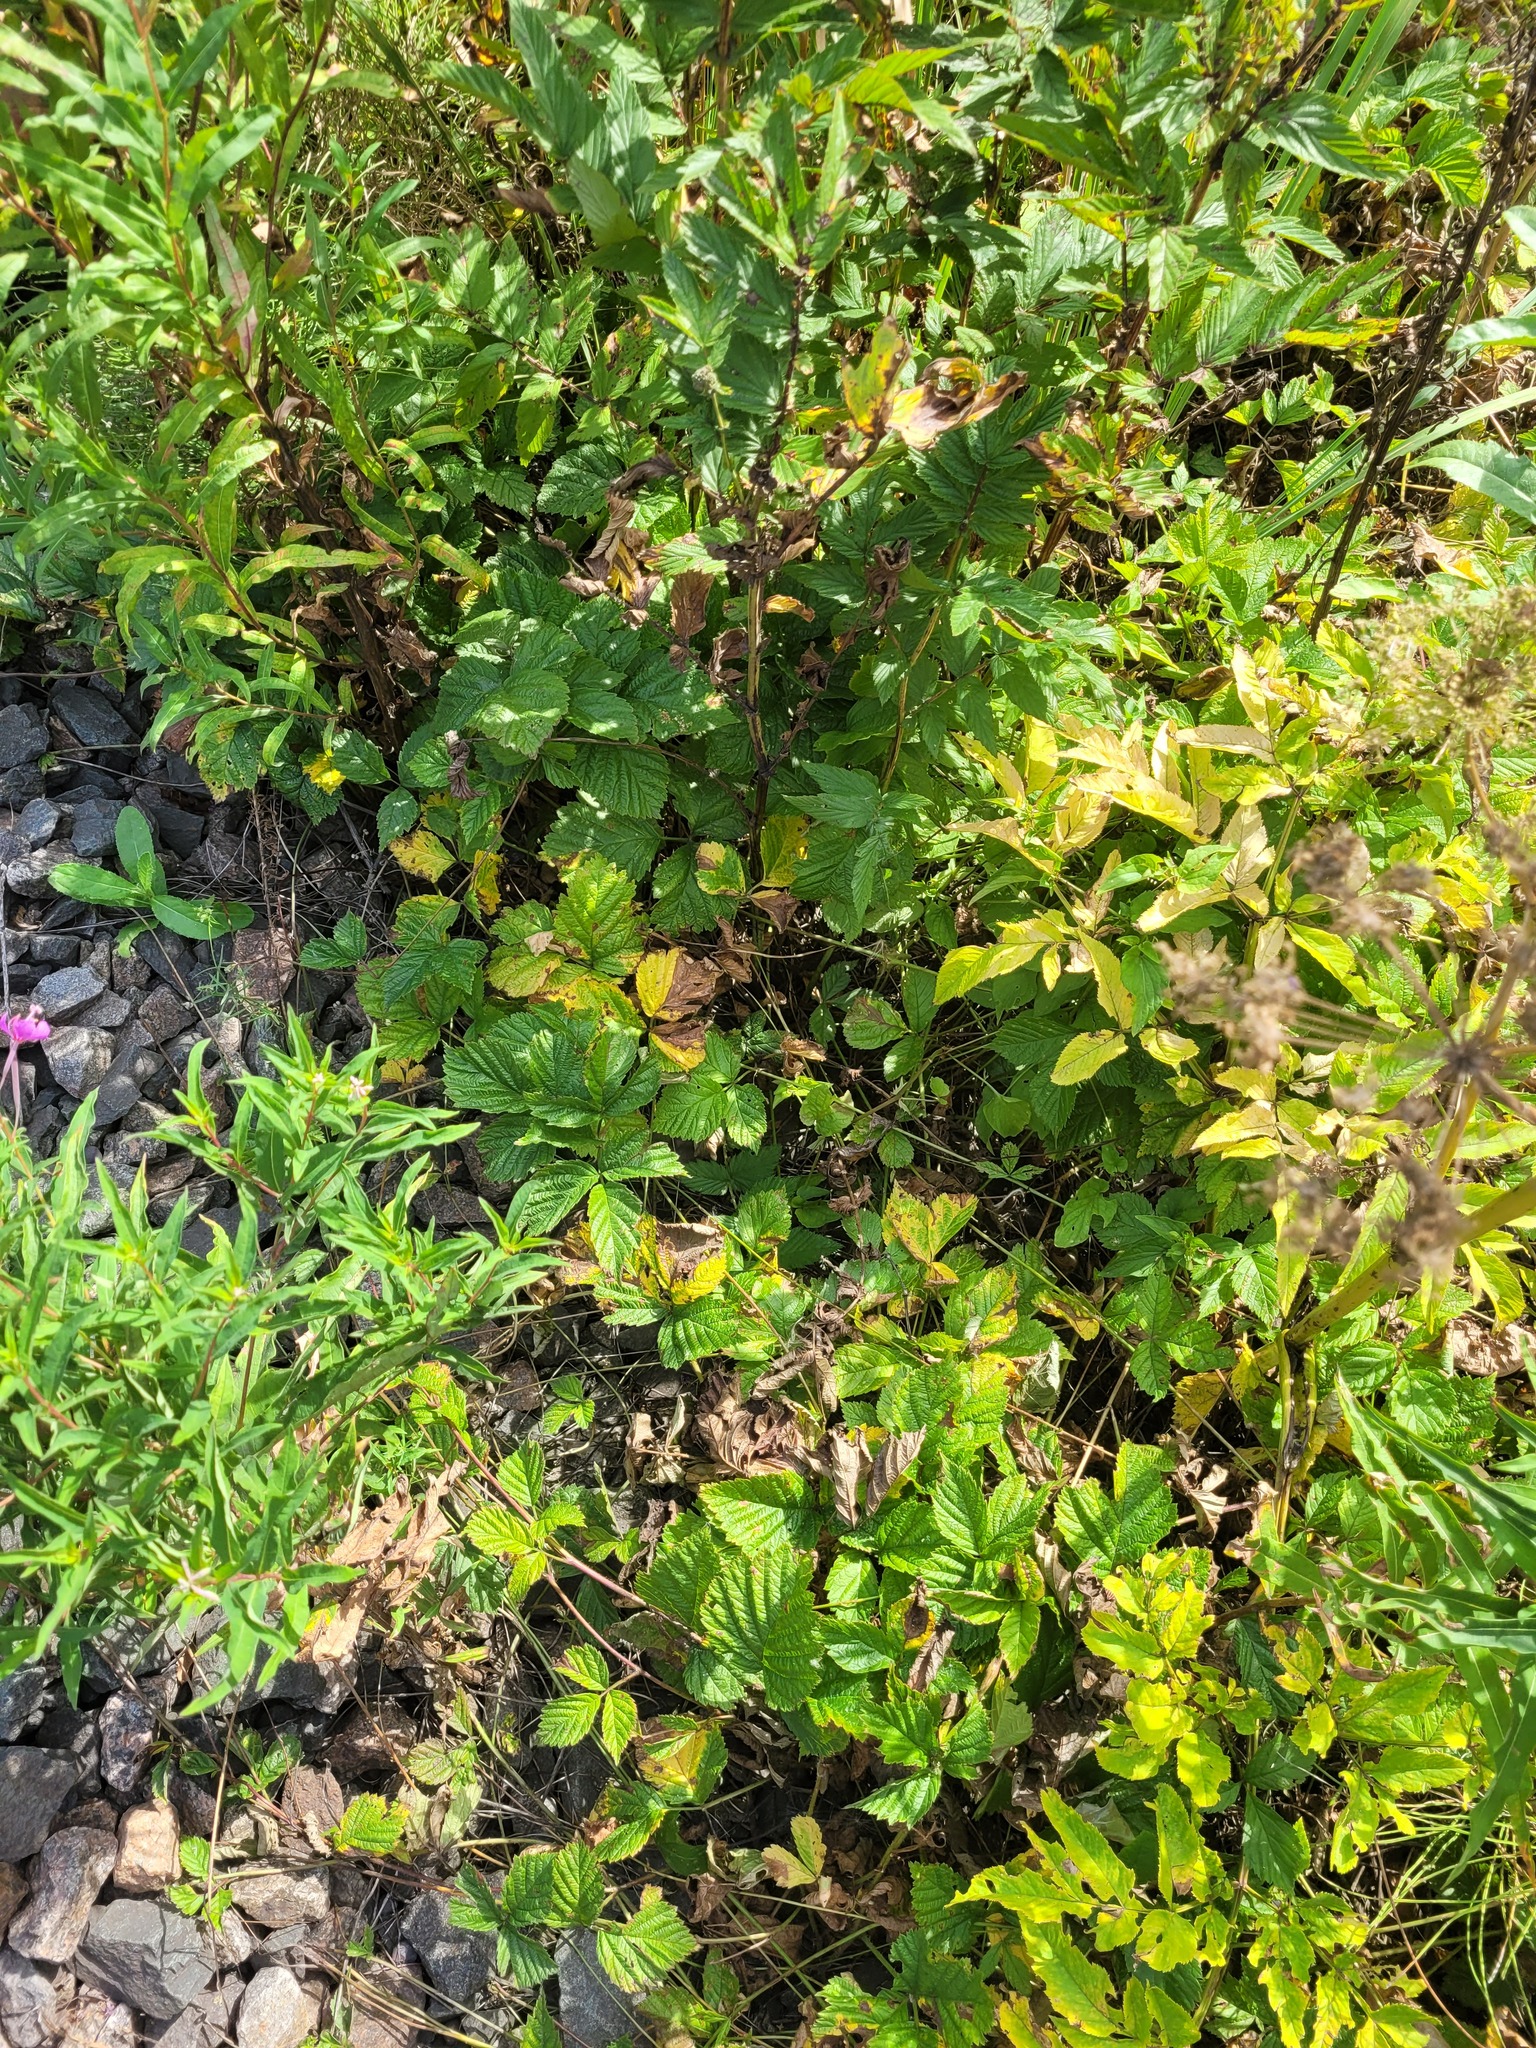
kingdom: Plantae
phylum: Tracheophyta
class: Magnoliopsida
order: Rosales
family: Rosaceae
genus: Rubus
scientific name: Rubus saxatilis
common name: Stone bramble
